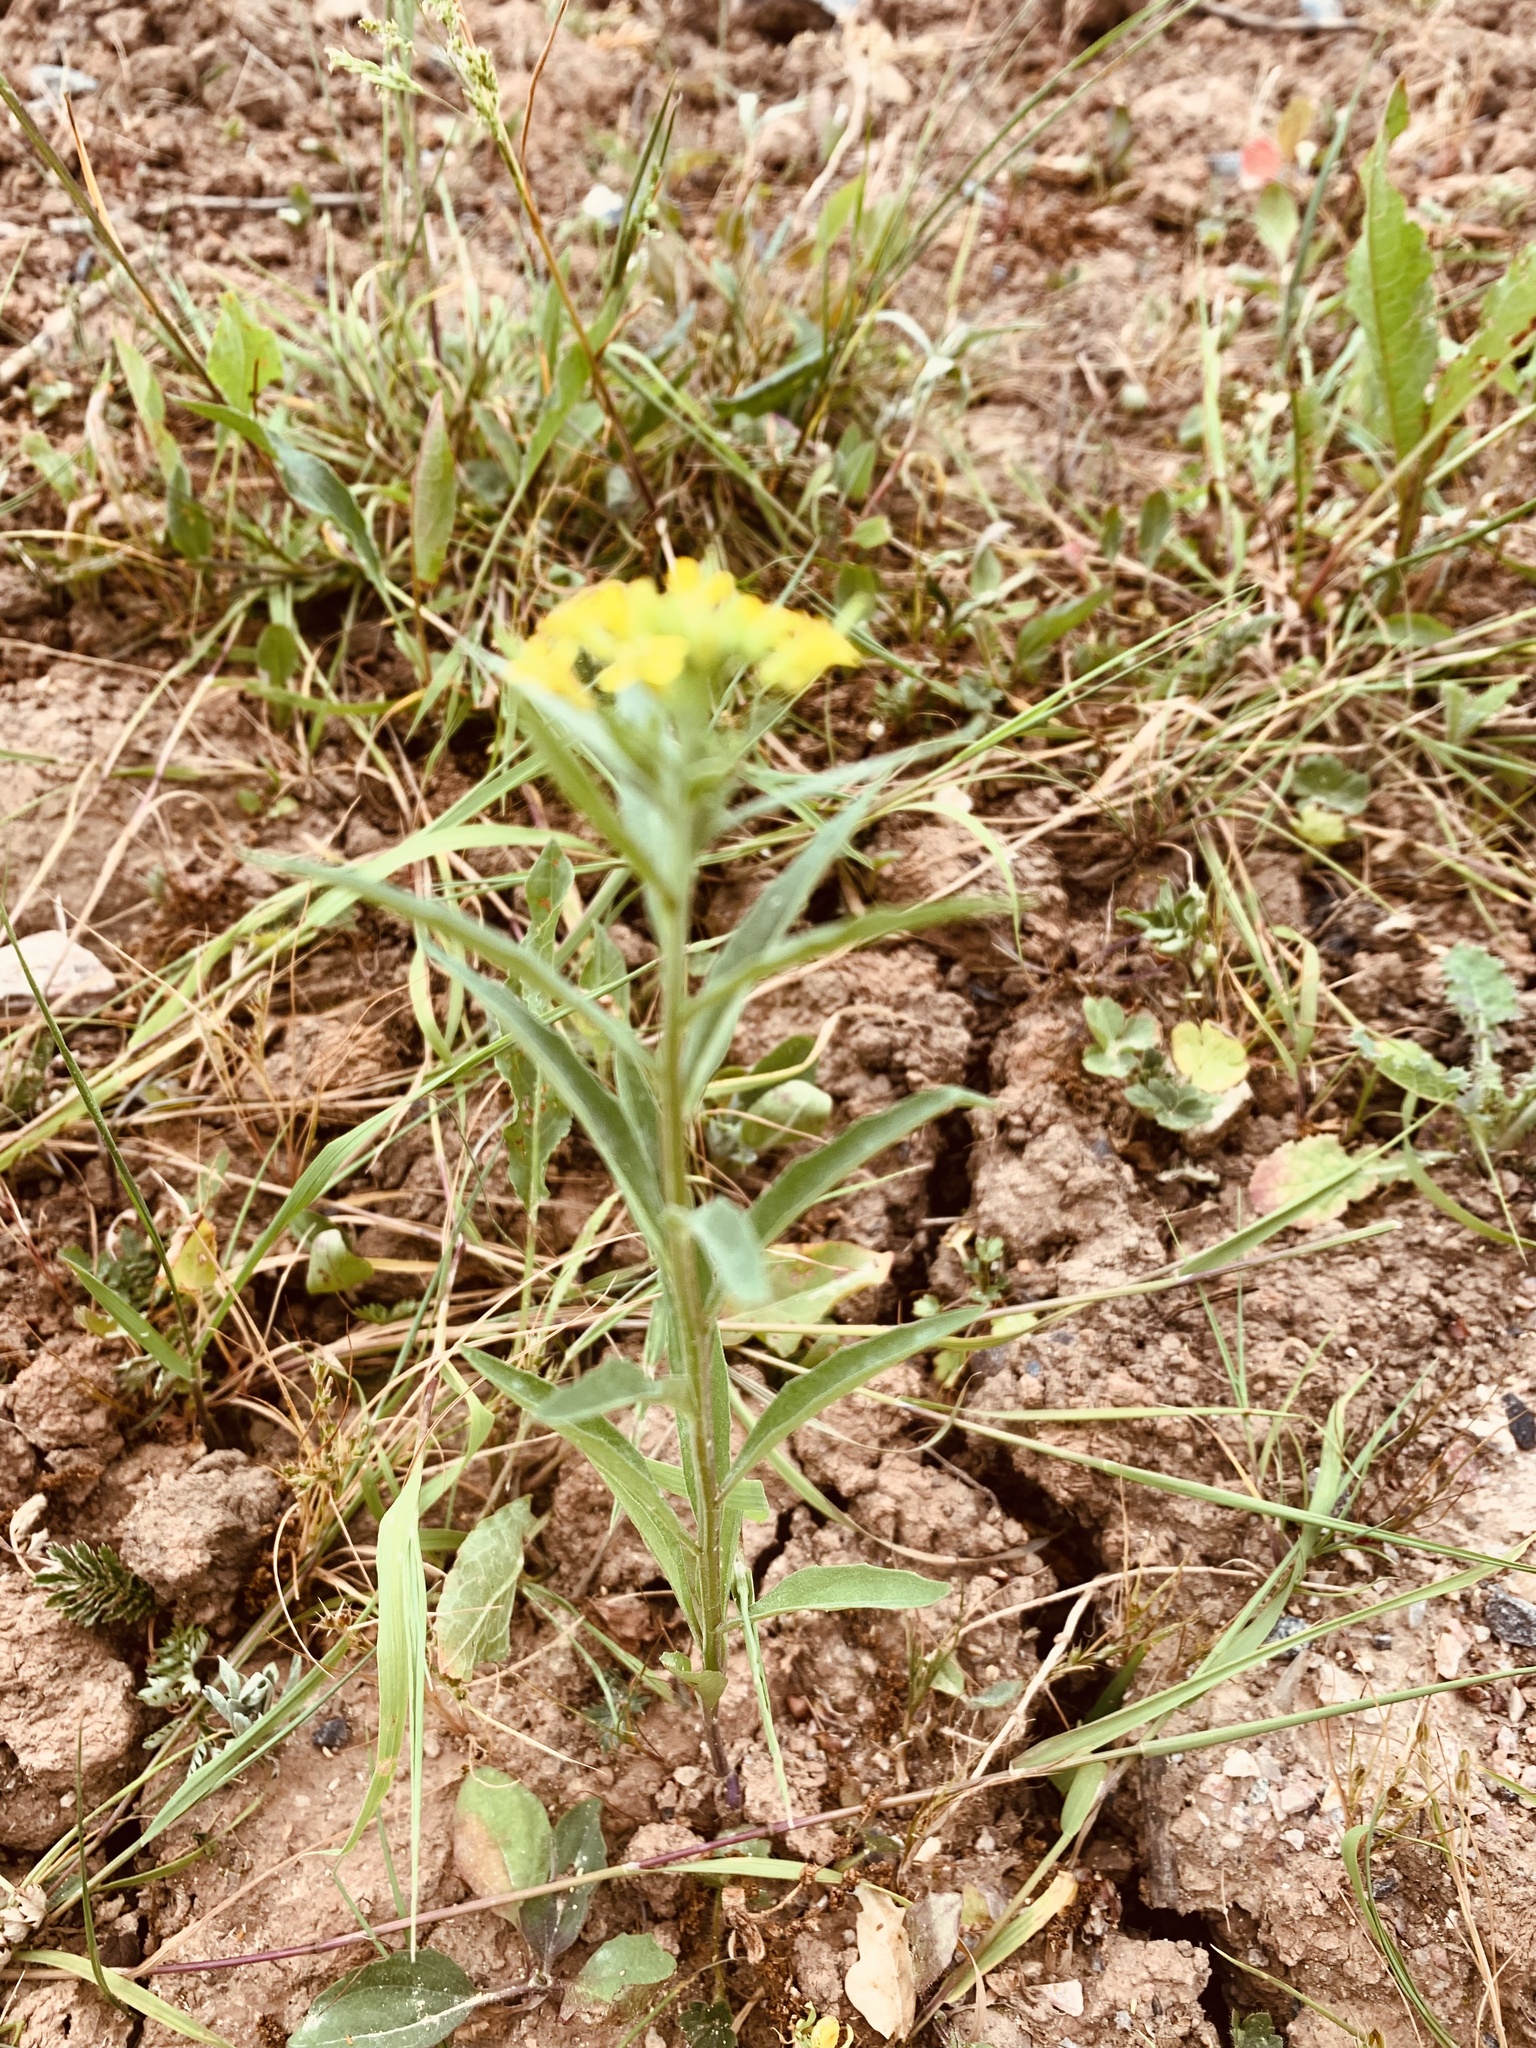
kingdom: Plantae
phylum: Tracheophyta
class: Magnoliopsida
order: Brassicales
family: Brassicaceae
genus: Erysimum
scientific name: Erysimum cheiranthoides
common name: Treacle mustard
